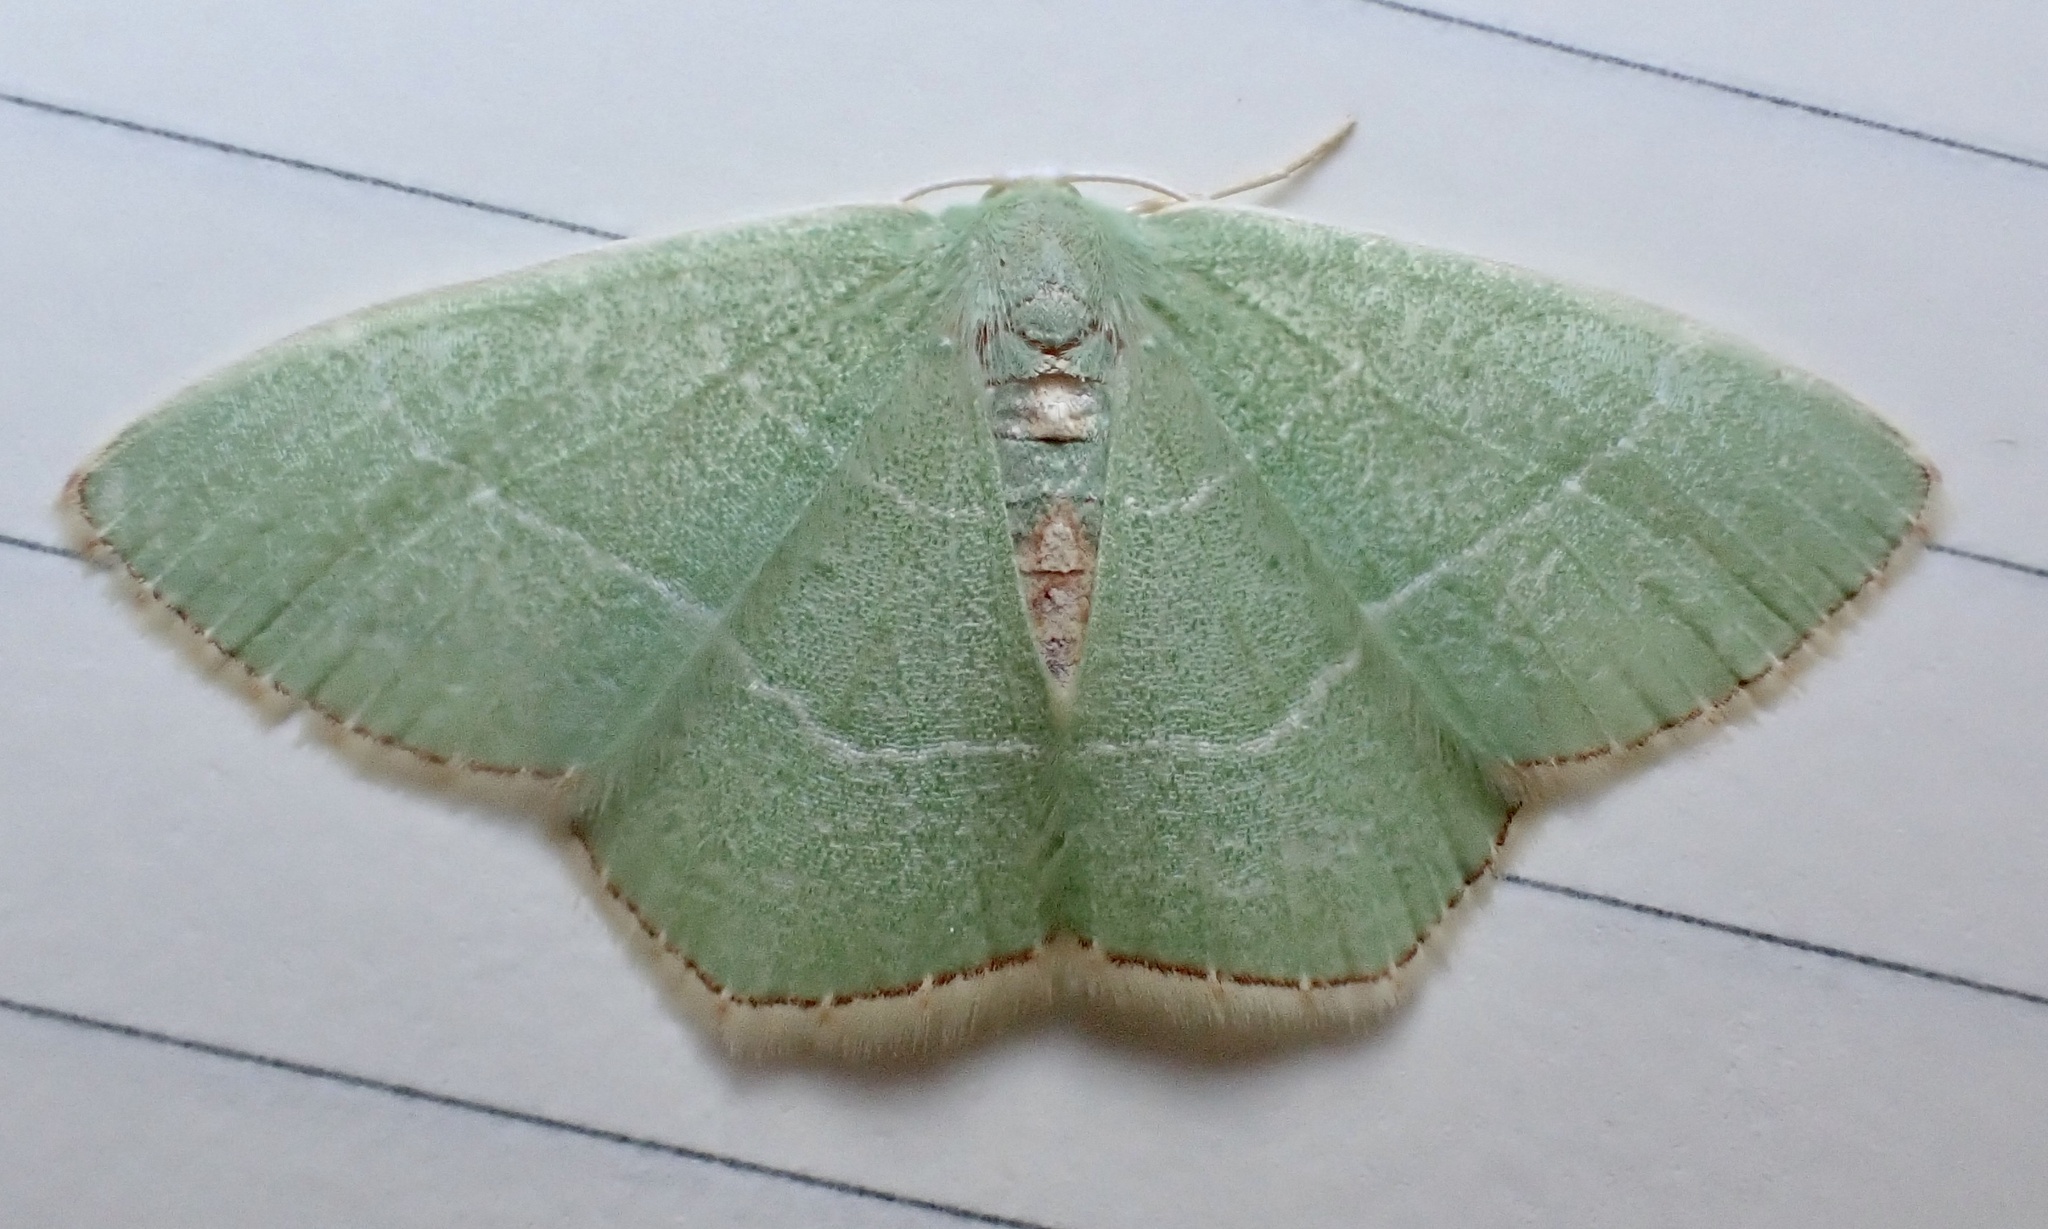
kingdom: Animalia
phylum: Arthropoda
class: Insecta
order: Lepidoptera
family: Geometridae
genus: Nemoria
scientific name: Nemoria bistriaria
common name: Red-fringed emerald
